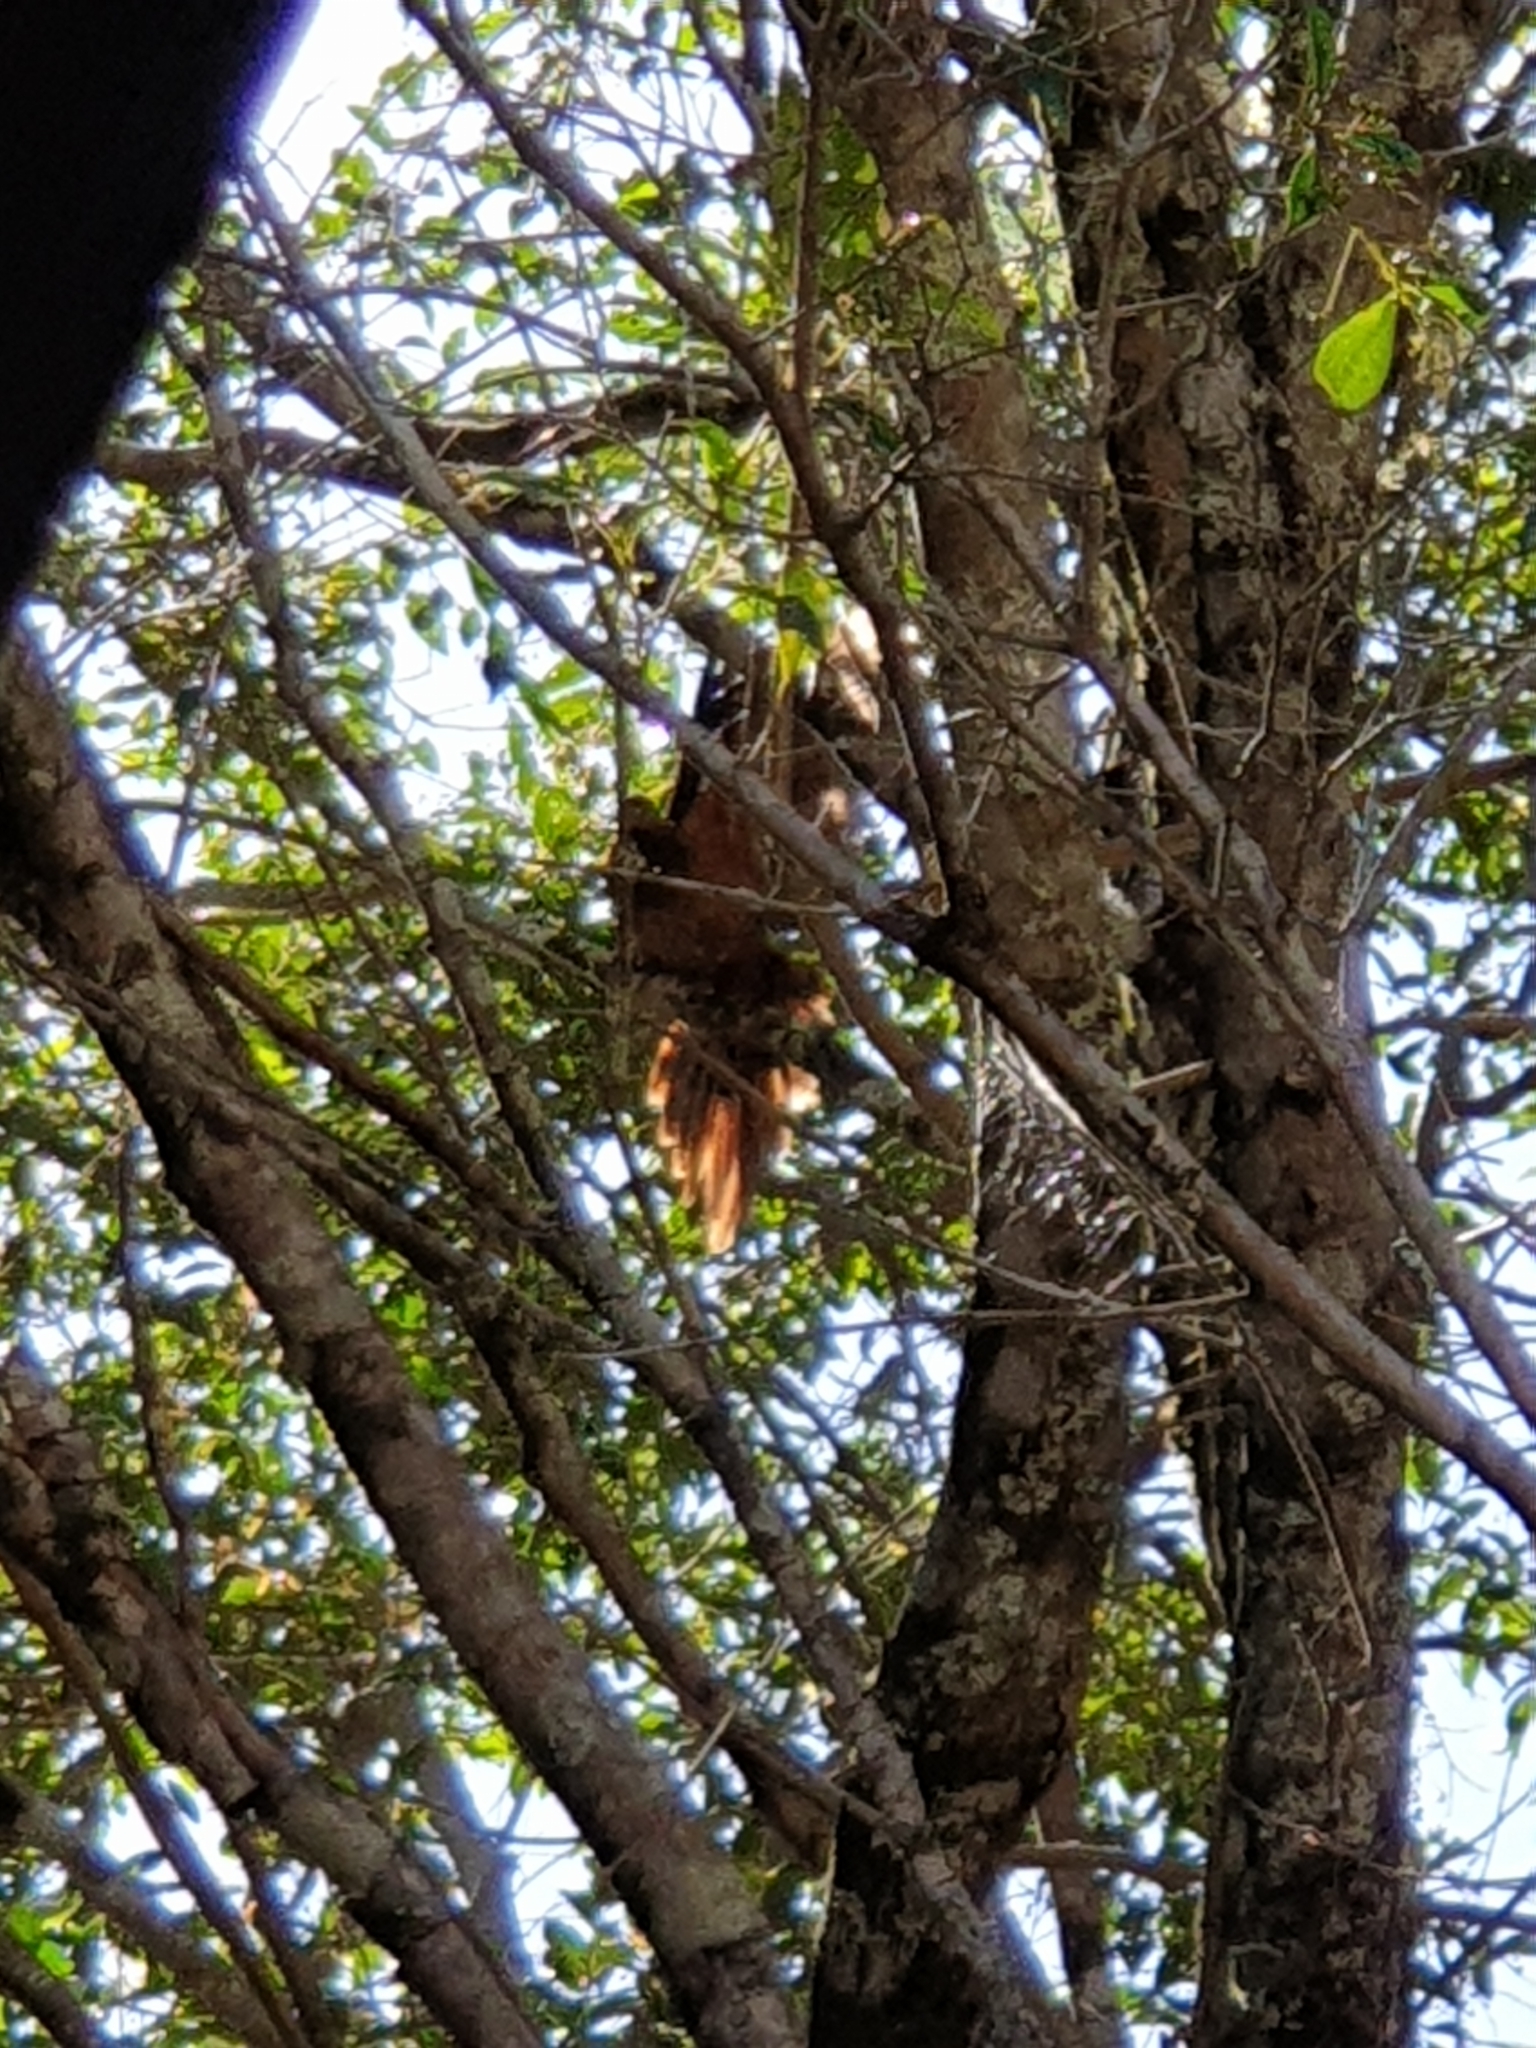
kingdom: Animalia
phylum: Chordata
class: Aves
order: Columbiformes
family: Columbidae
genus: Macropygia
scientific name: Macropygia phasianella
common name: Brown cuckoo-dove
